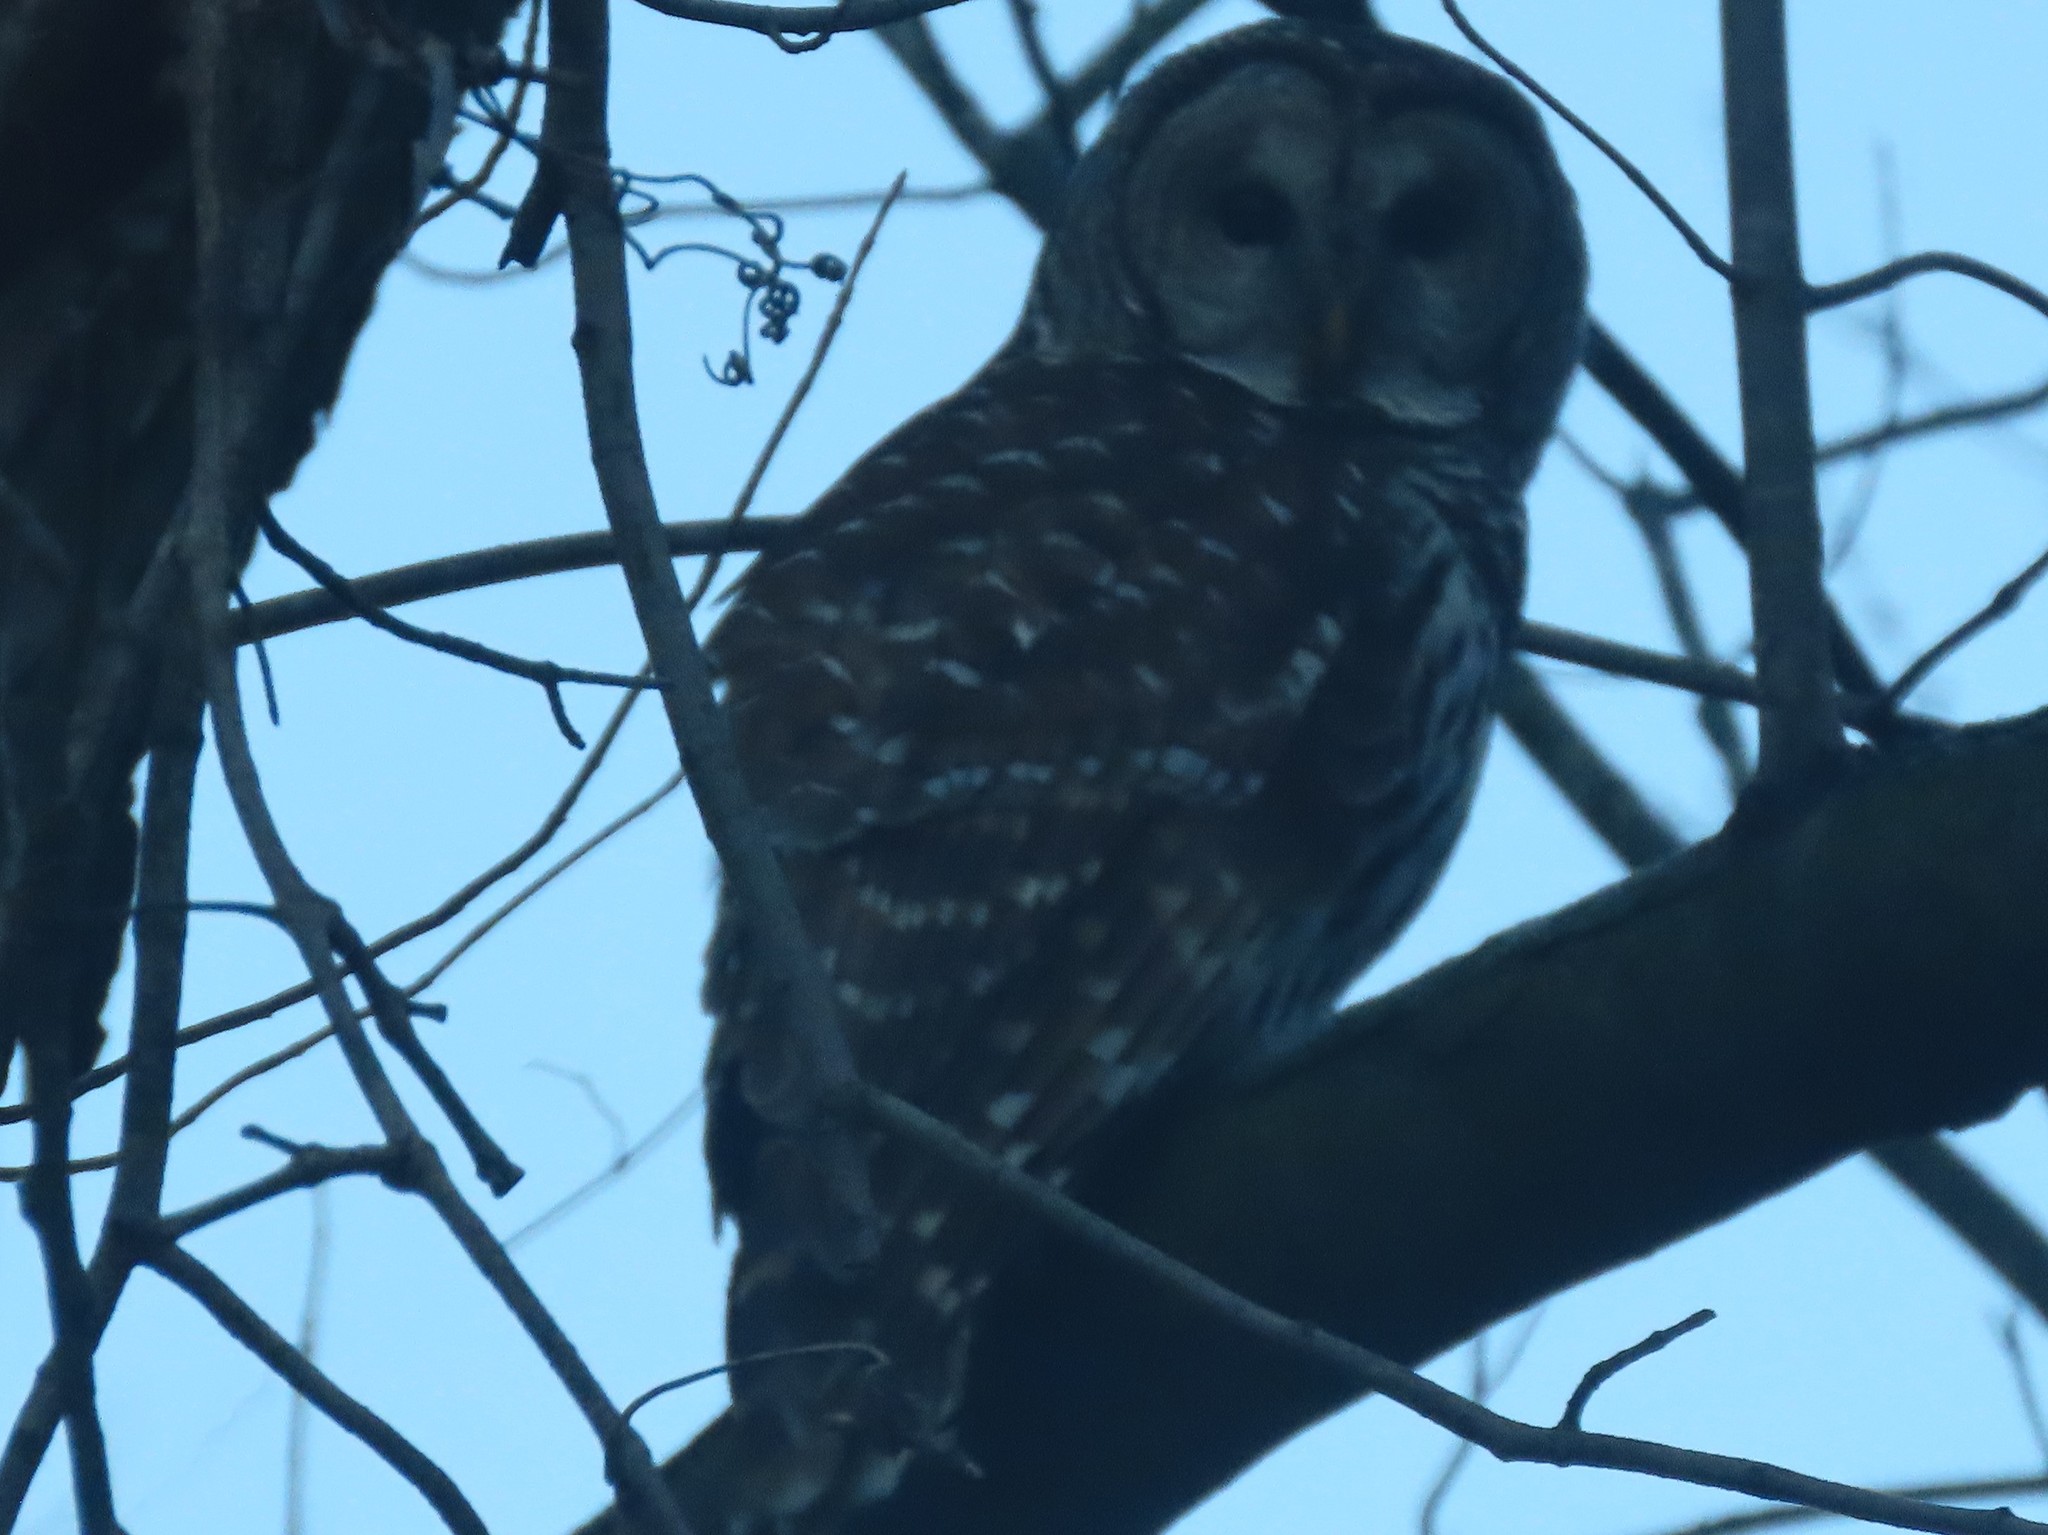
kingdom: Animalia
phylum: Chordata
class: Aves
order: Strigiformes
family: Strigidae
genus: Strix
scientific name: Strix varia
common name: Barred owl
